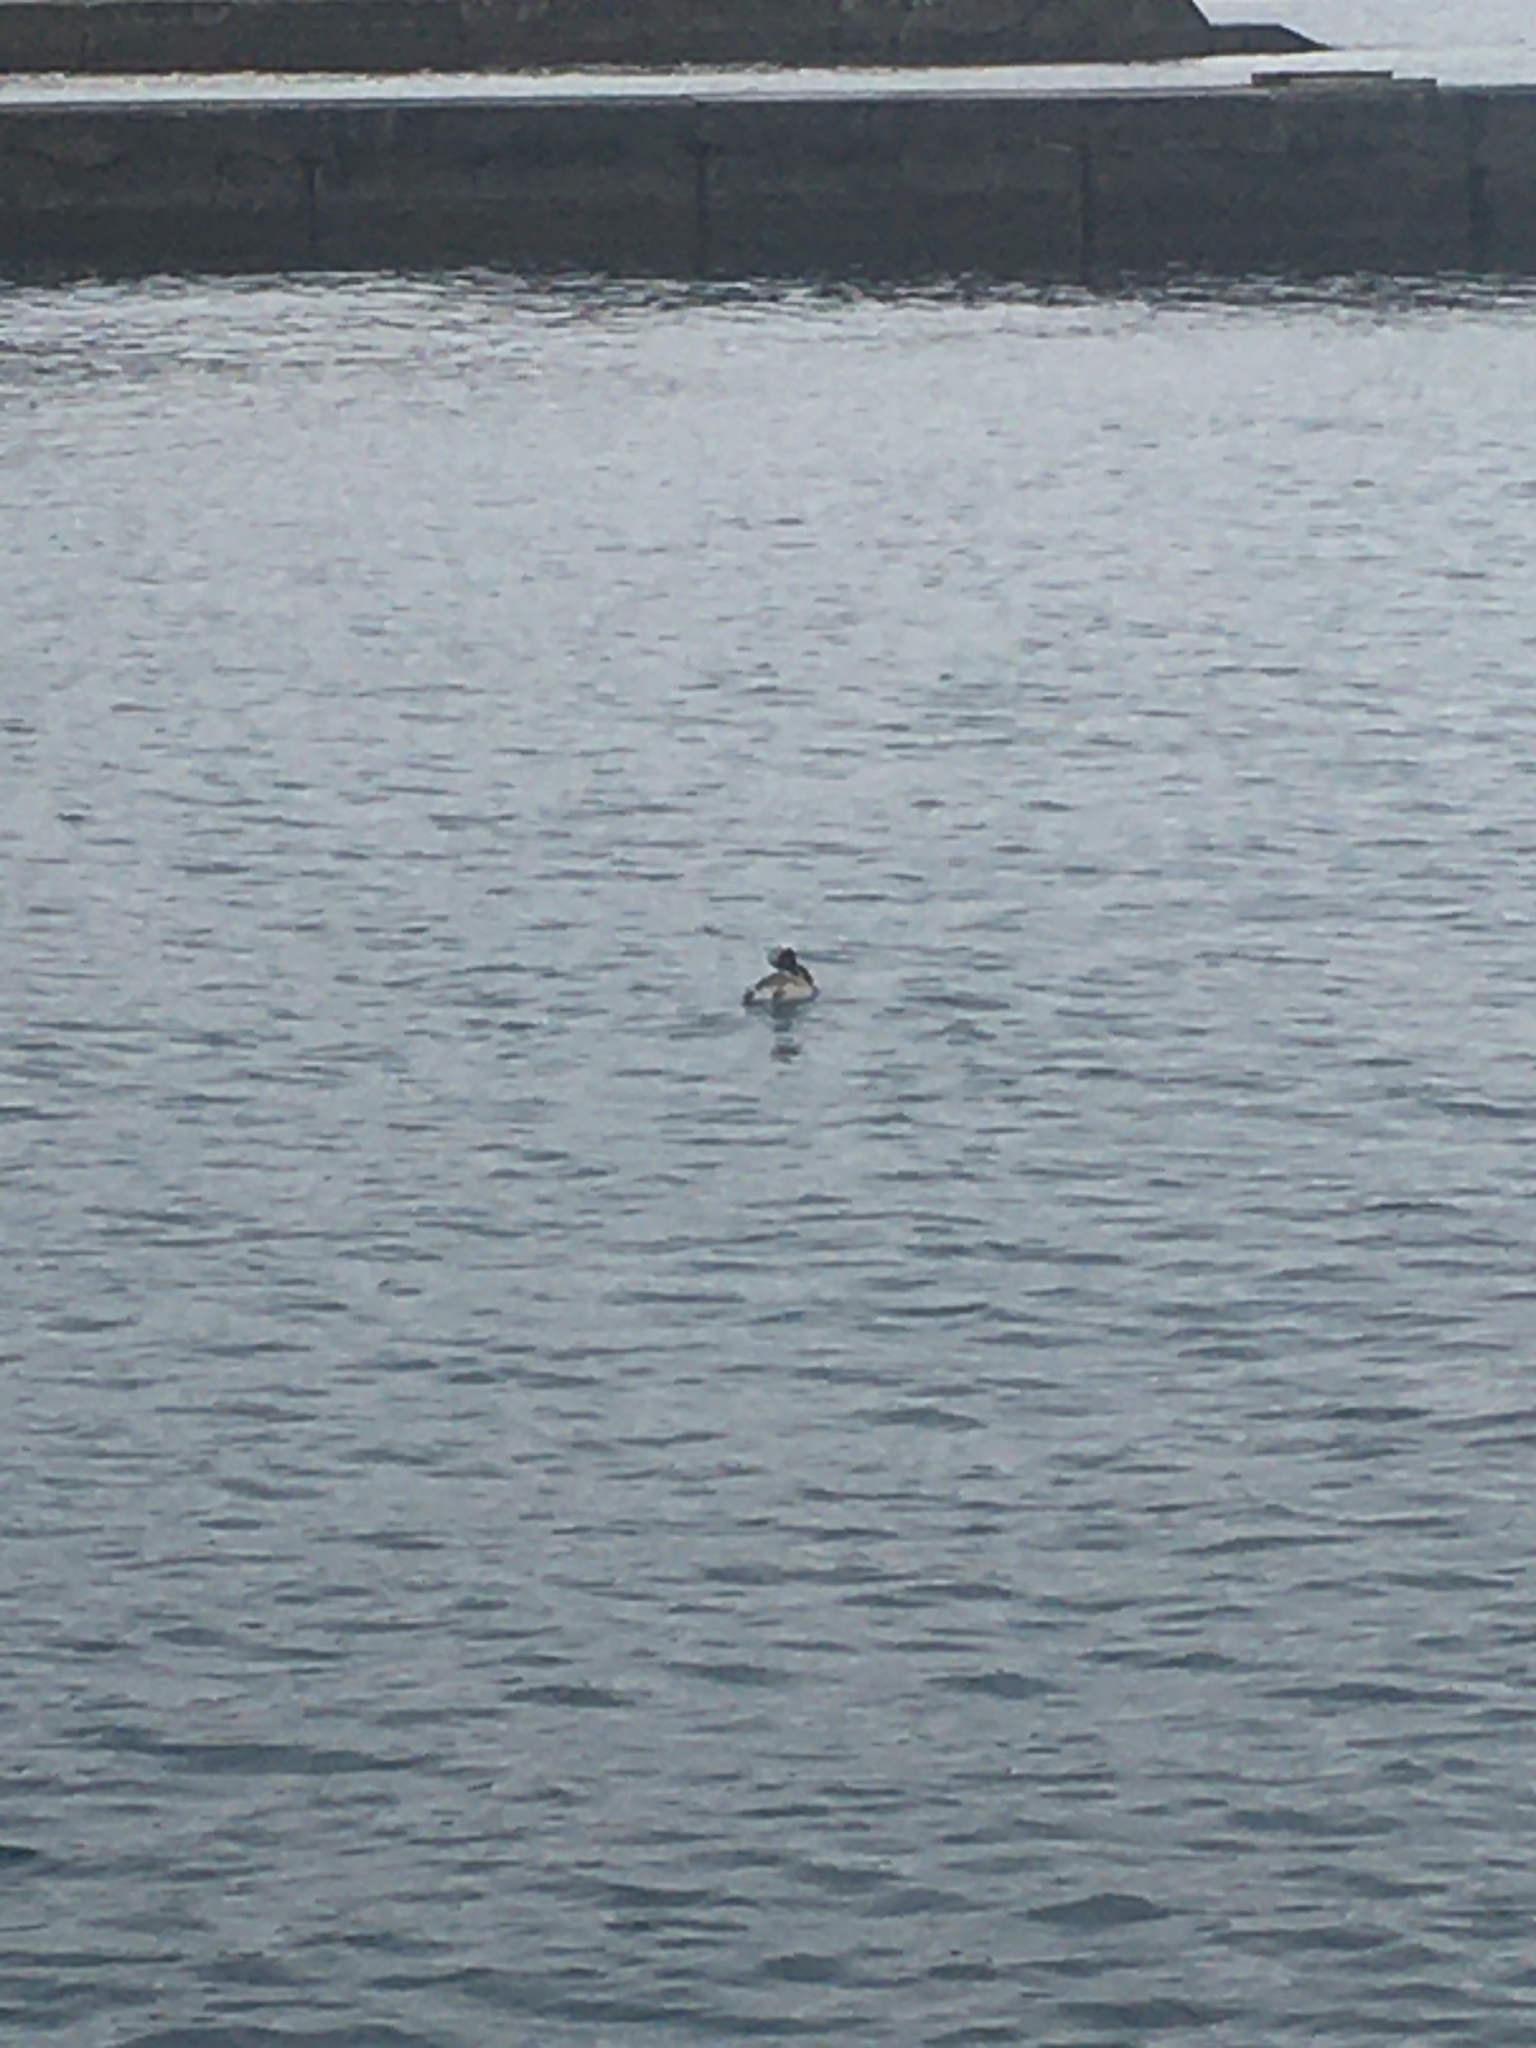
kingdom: Animalia
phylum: Chordata
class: Aves
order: Podicipediformes
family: Podicipedidae
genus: Podiceps
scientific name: Podiceps cristatus
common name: Great crested grebe
